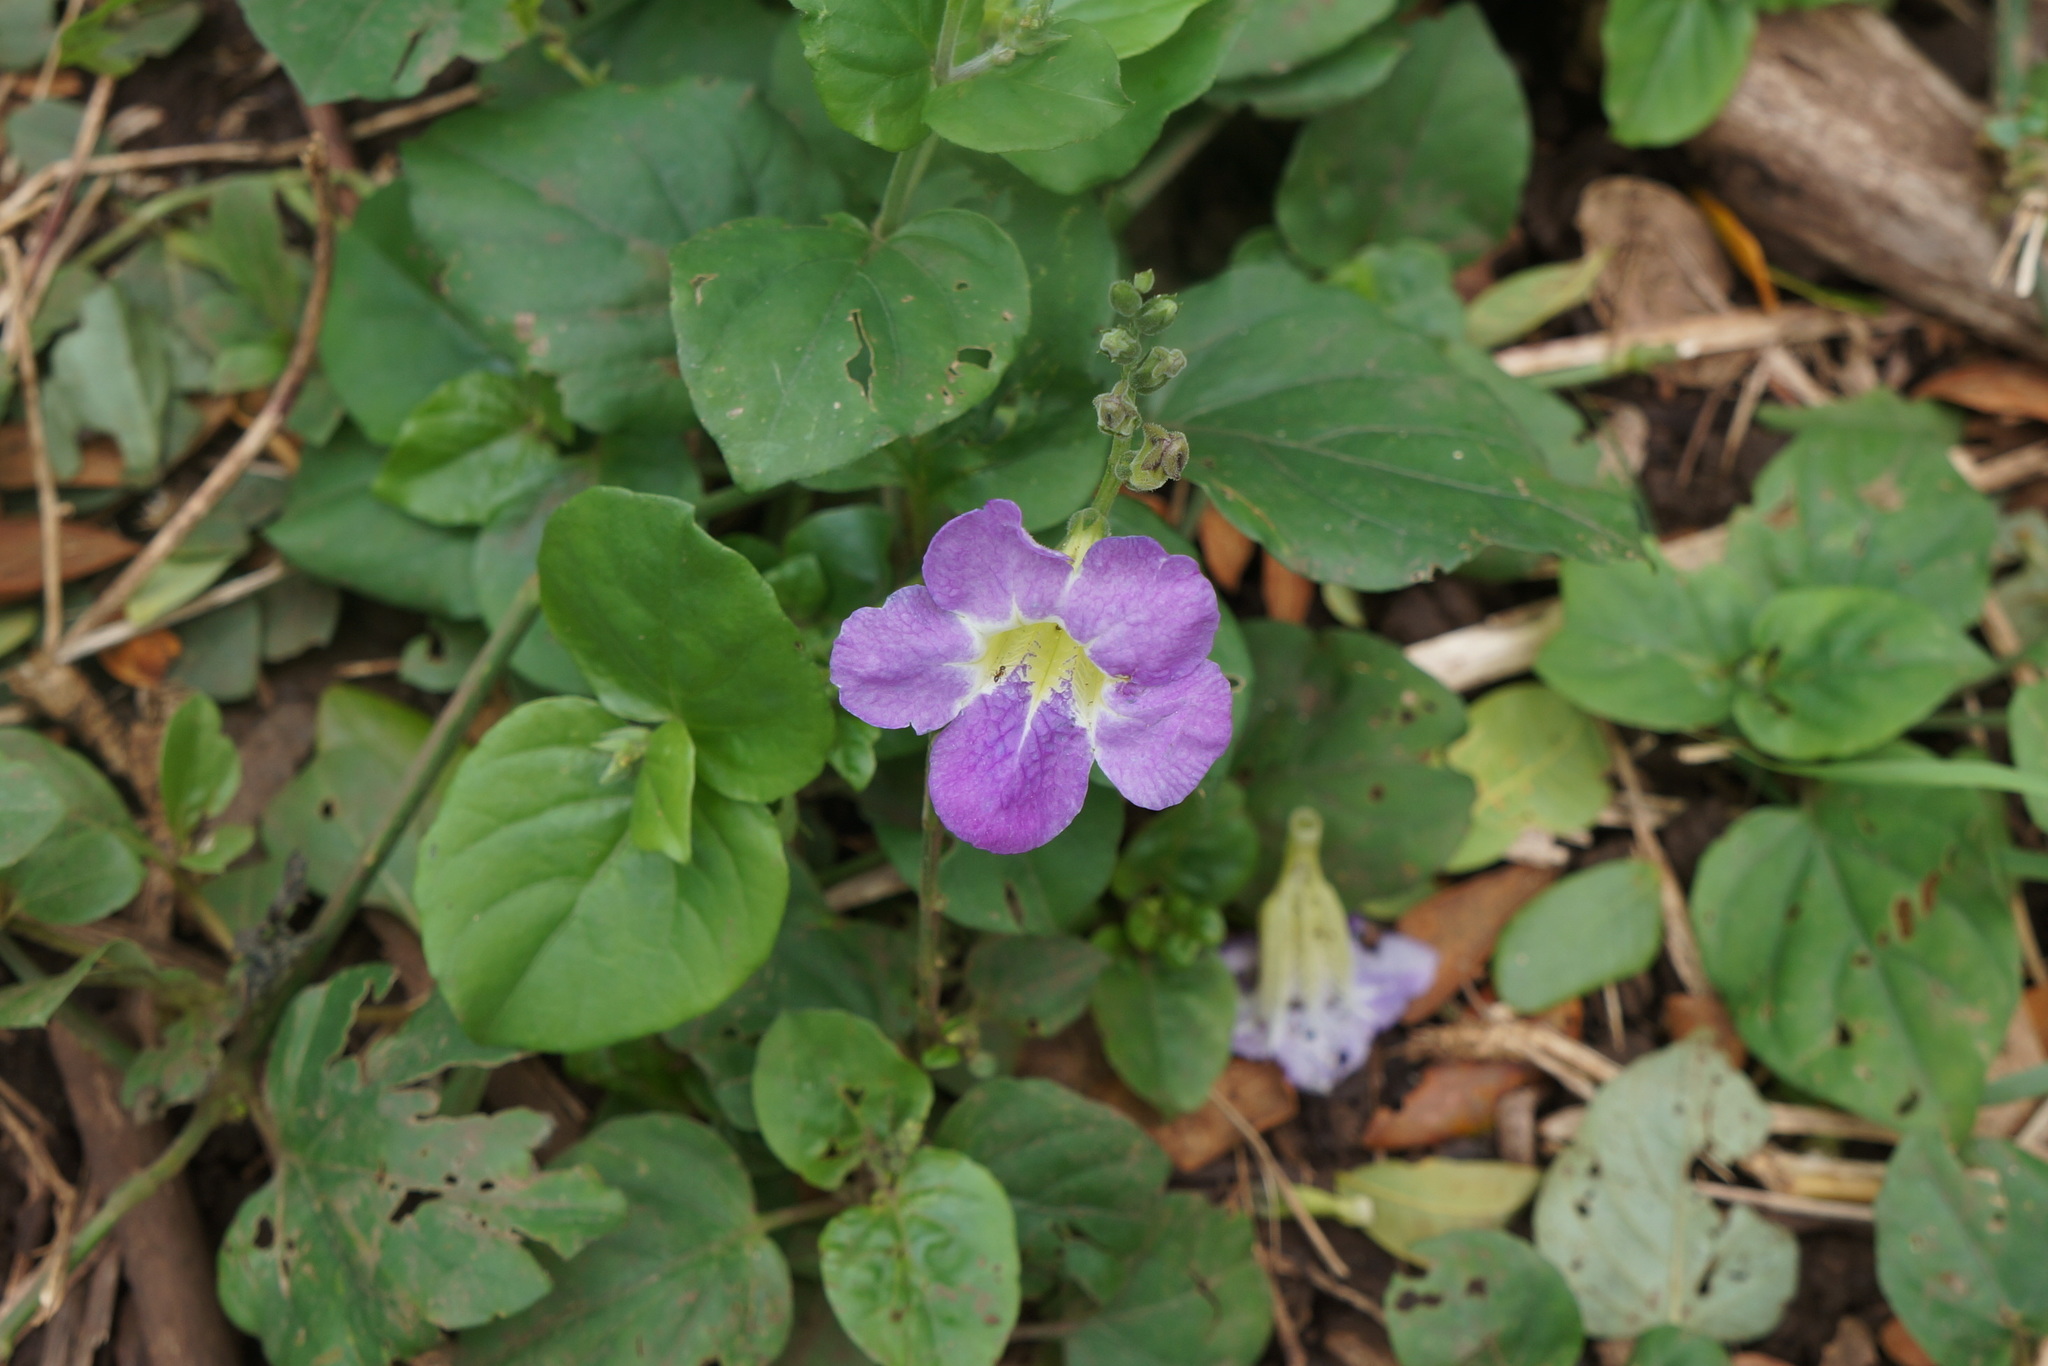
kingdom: Plantae
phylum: Tracheophyta
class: Magnoliopsida
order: Lamiales
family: Acanthaceae
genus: Asystasia
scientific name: Asystasia gangetica
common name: Chinese violet
